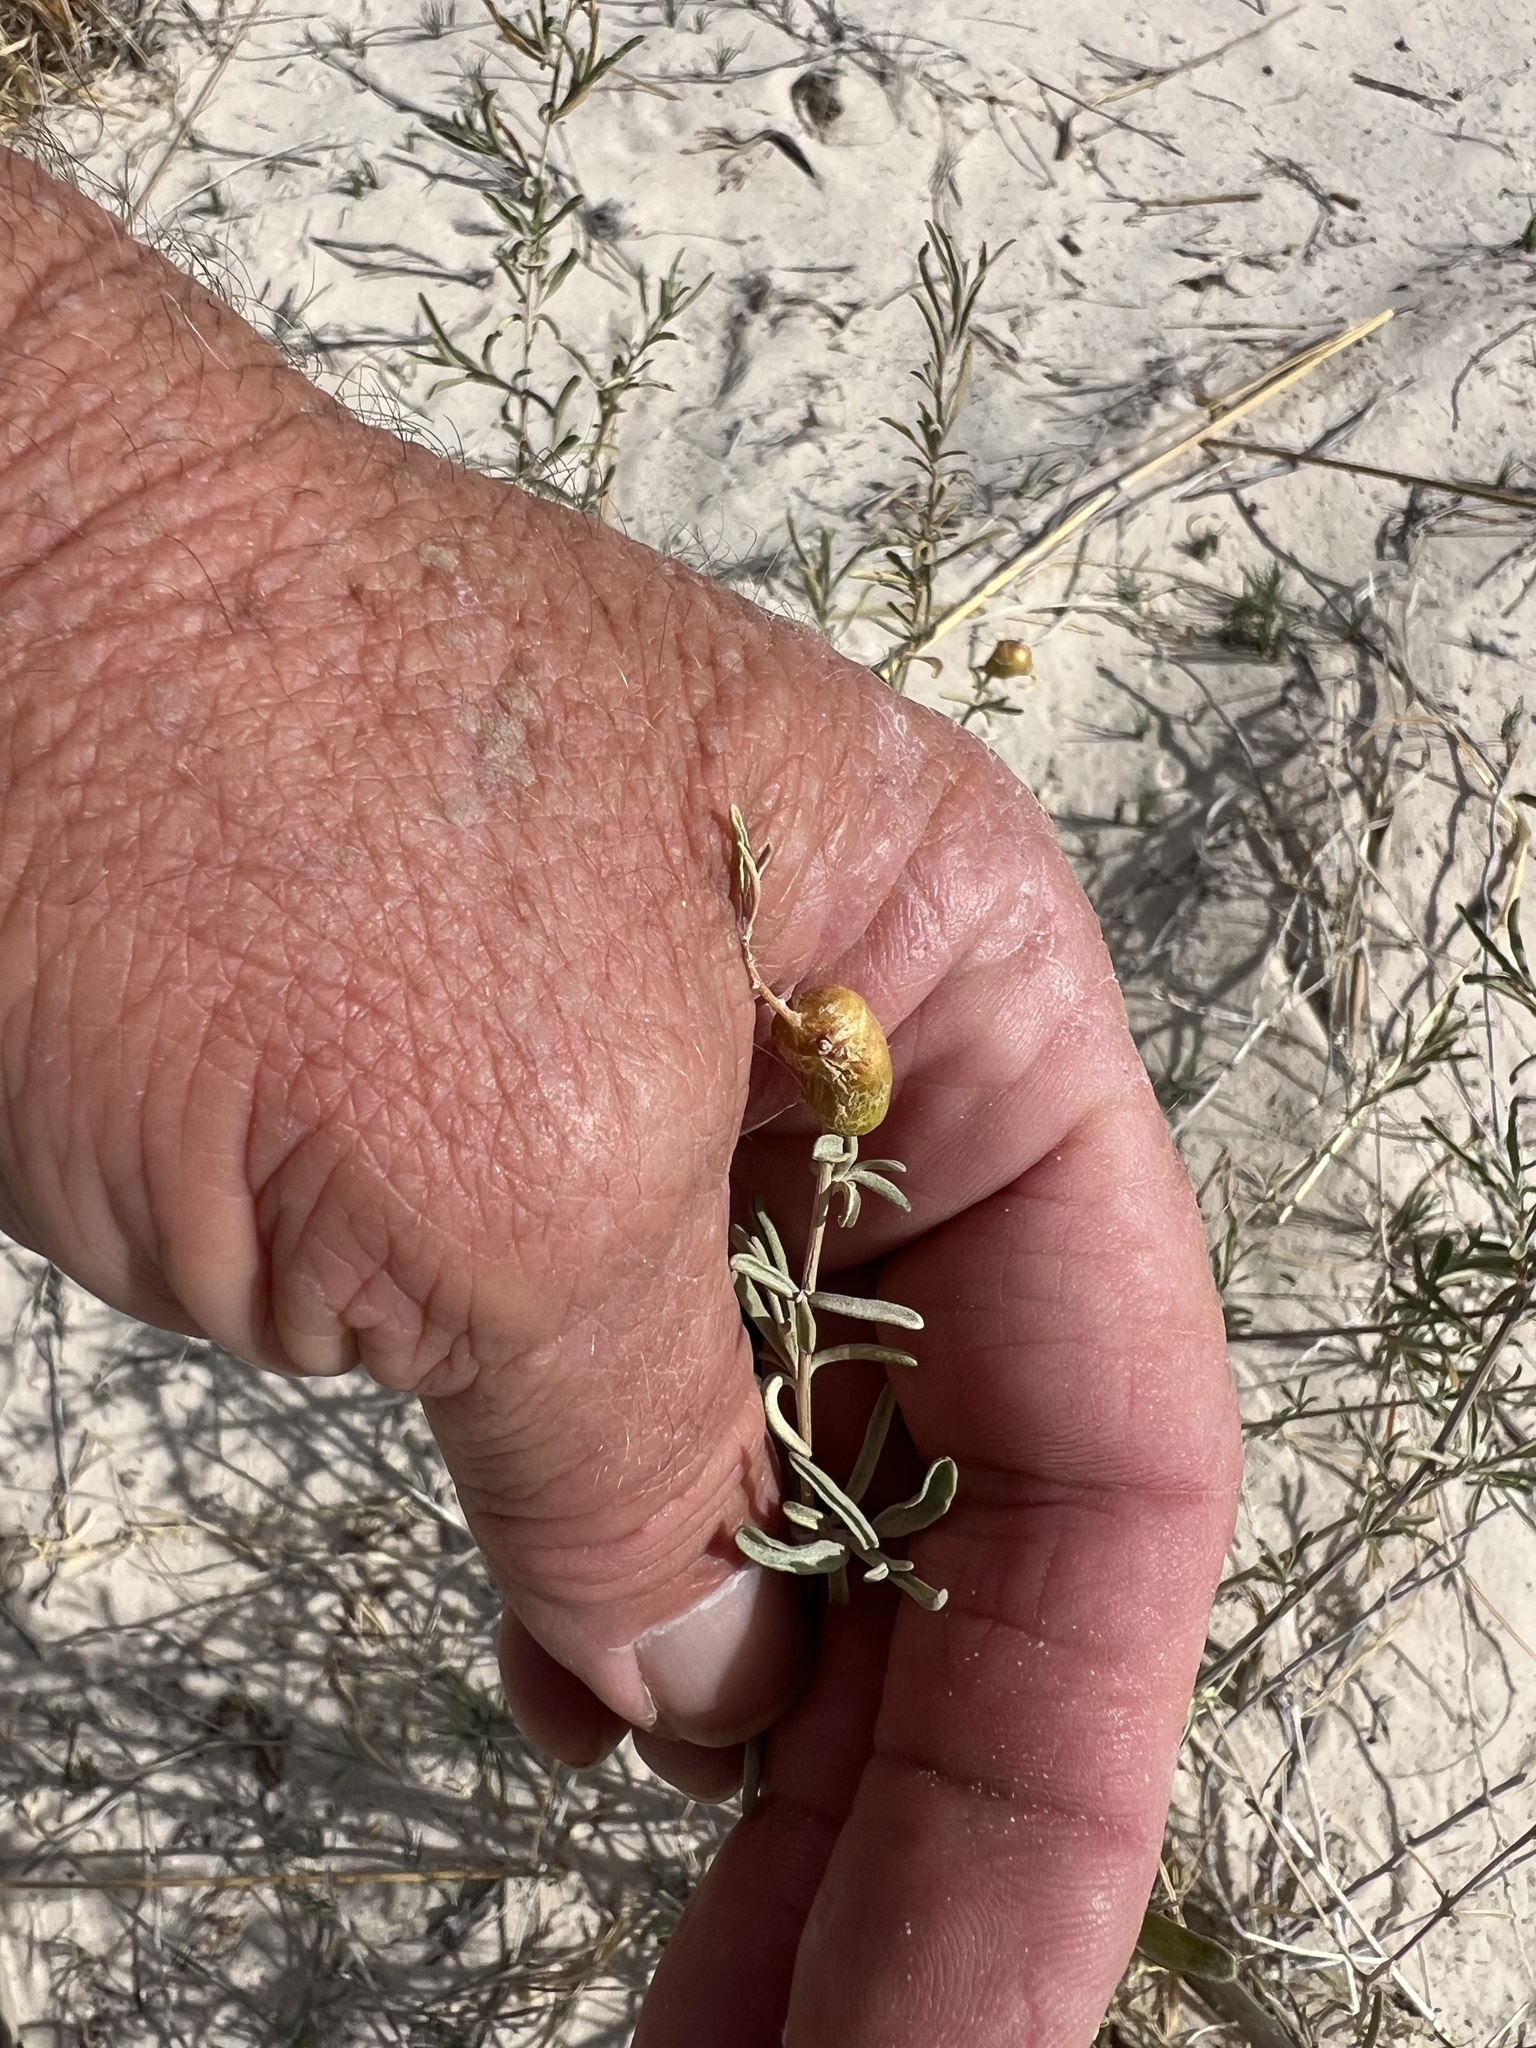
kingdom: Animalia
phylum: Arthropoda
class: Insecta
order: Diptera
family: Cecidomyiidae
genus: Asphondylia
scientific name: Asphondylia atriplicis
